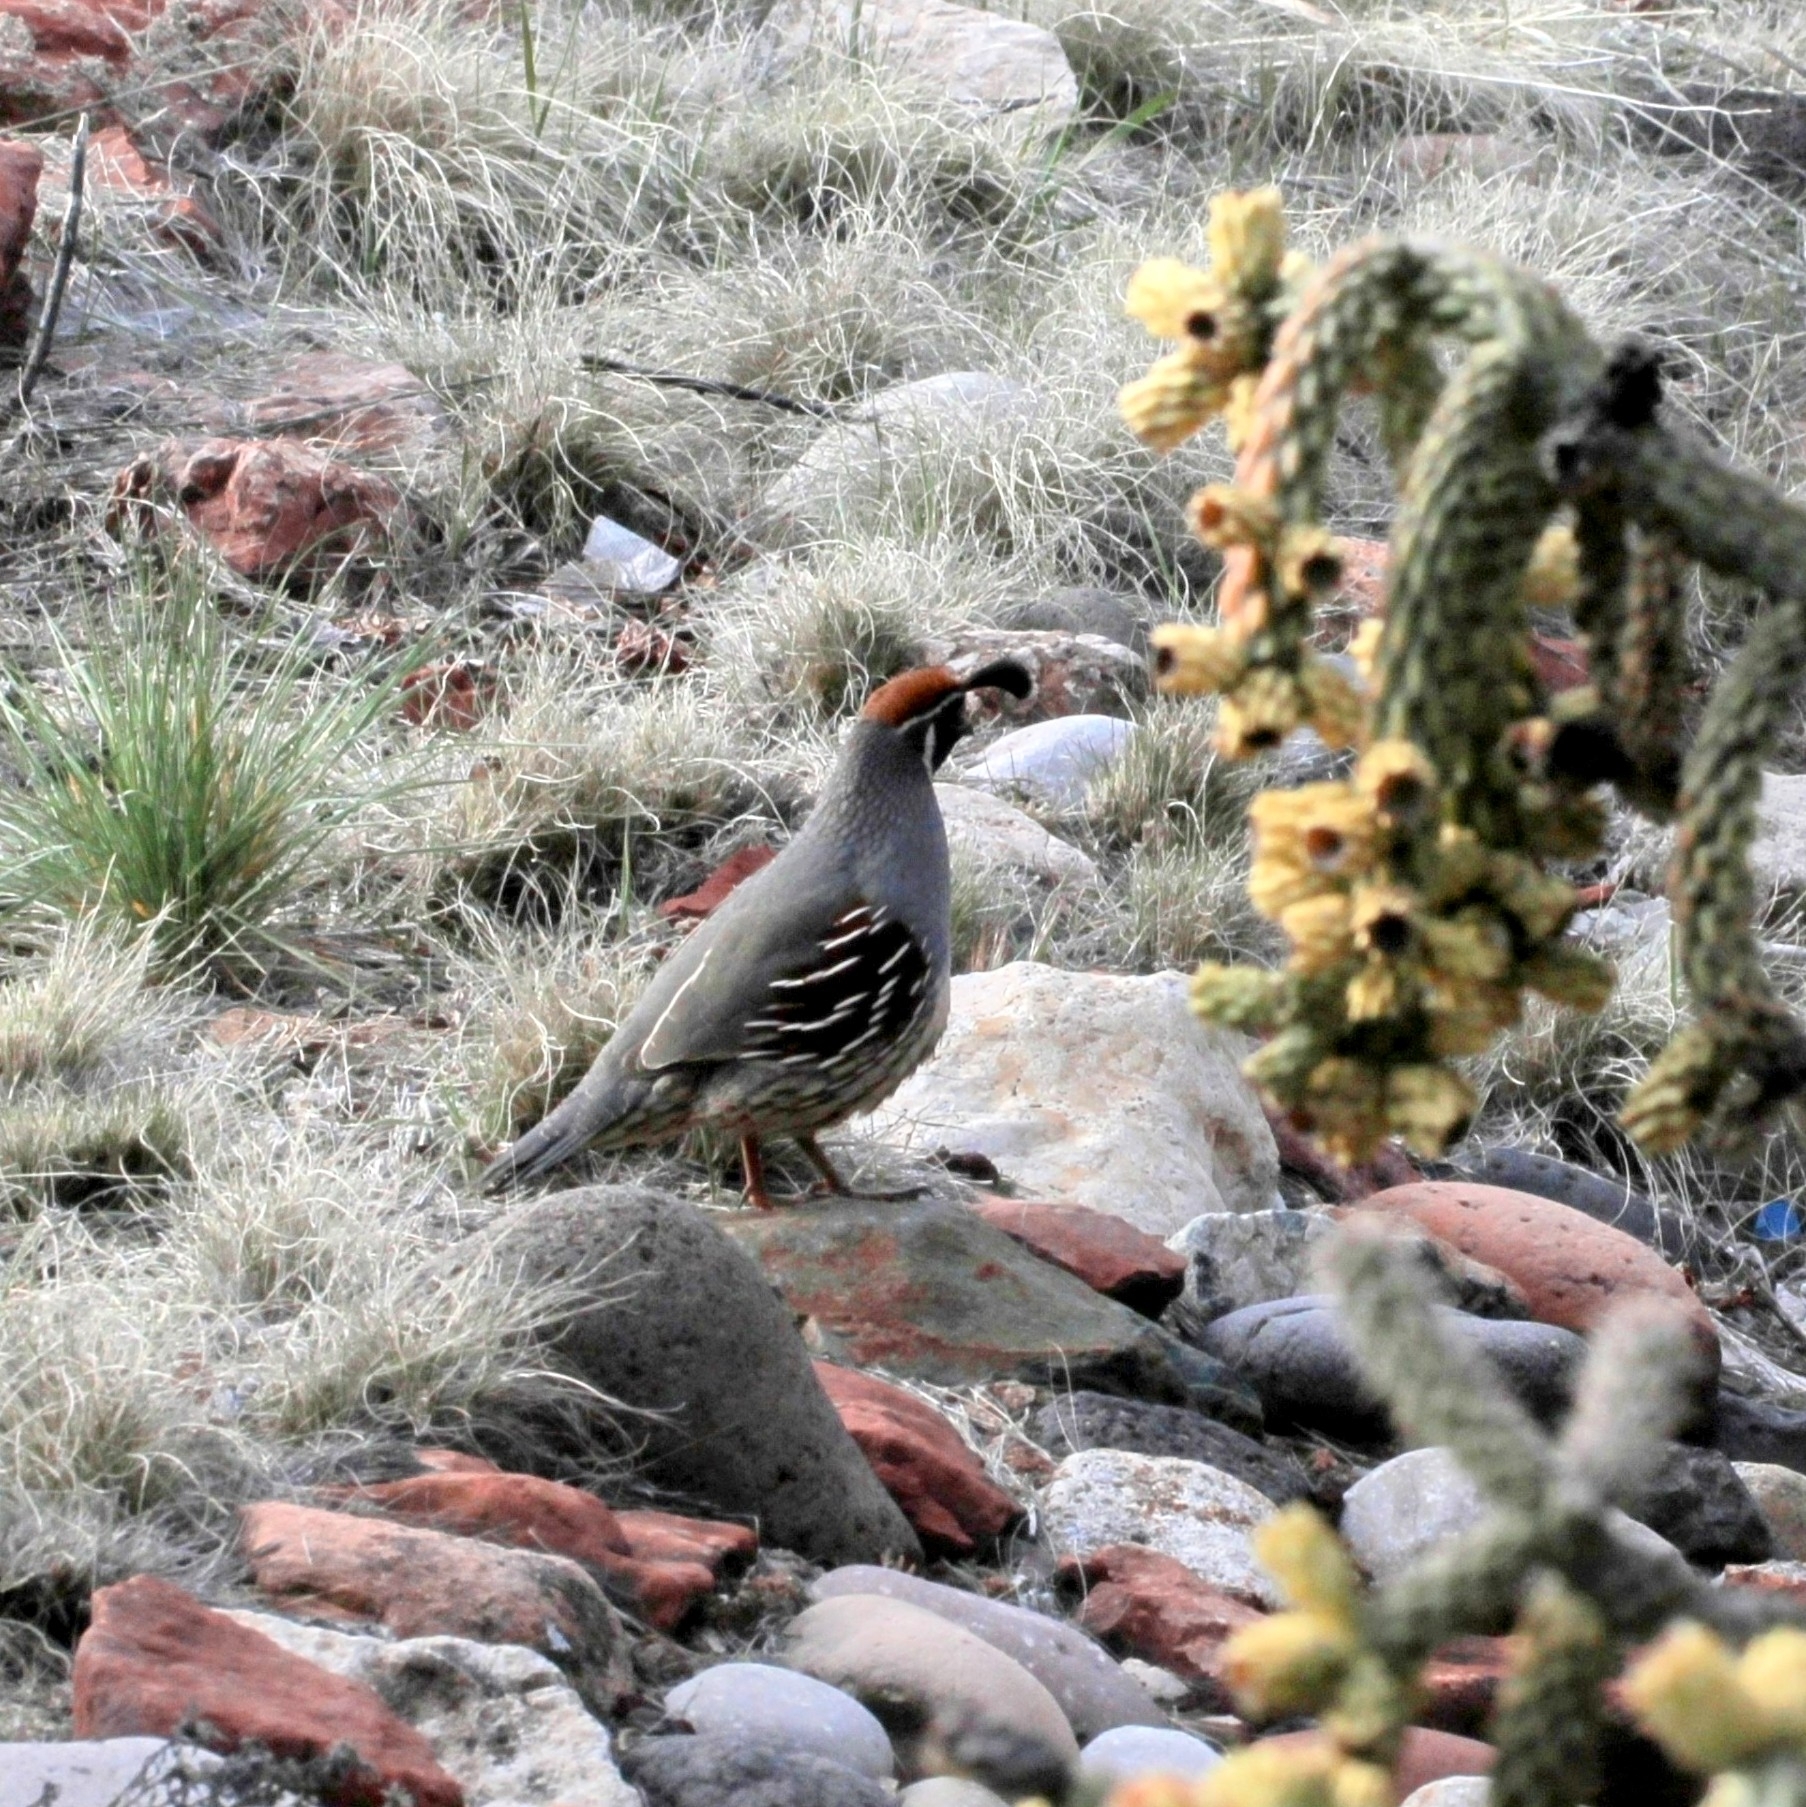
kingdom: Animalia
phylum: Chordata
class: Aves
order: Galliformes
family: Odontophoridae
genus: Callipepla
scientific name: Callipepla gambelii
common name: Gambel's quail
